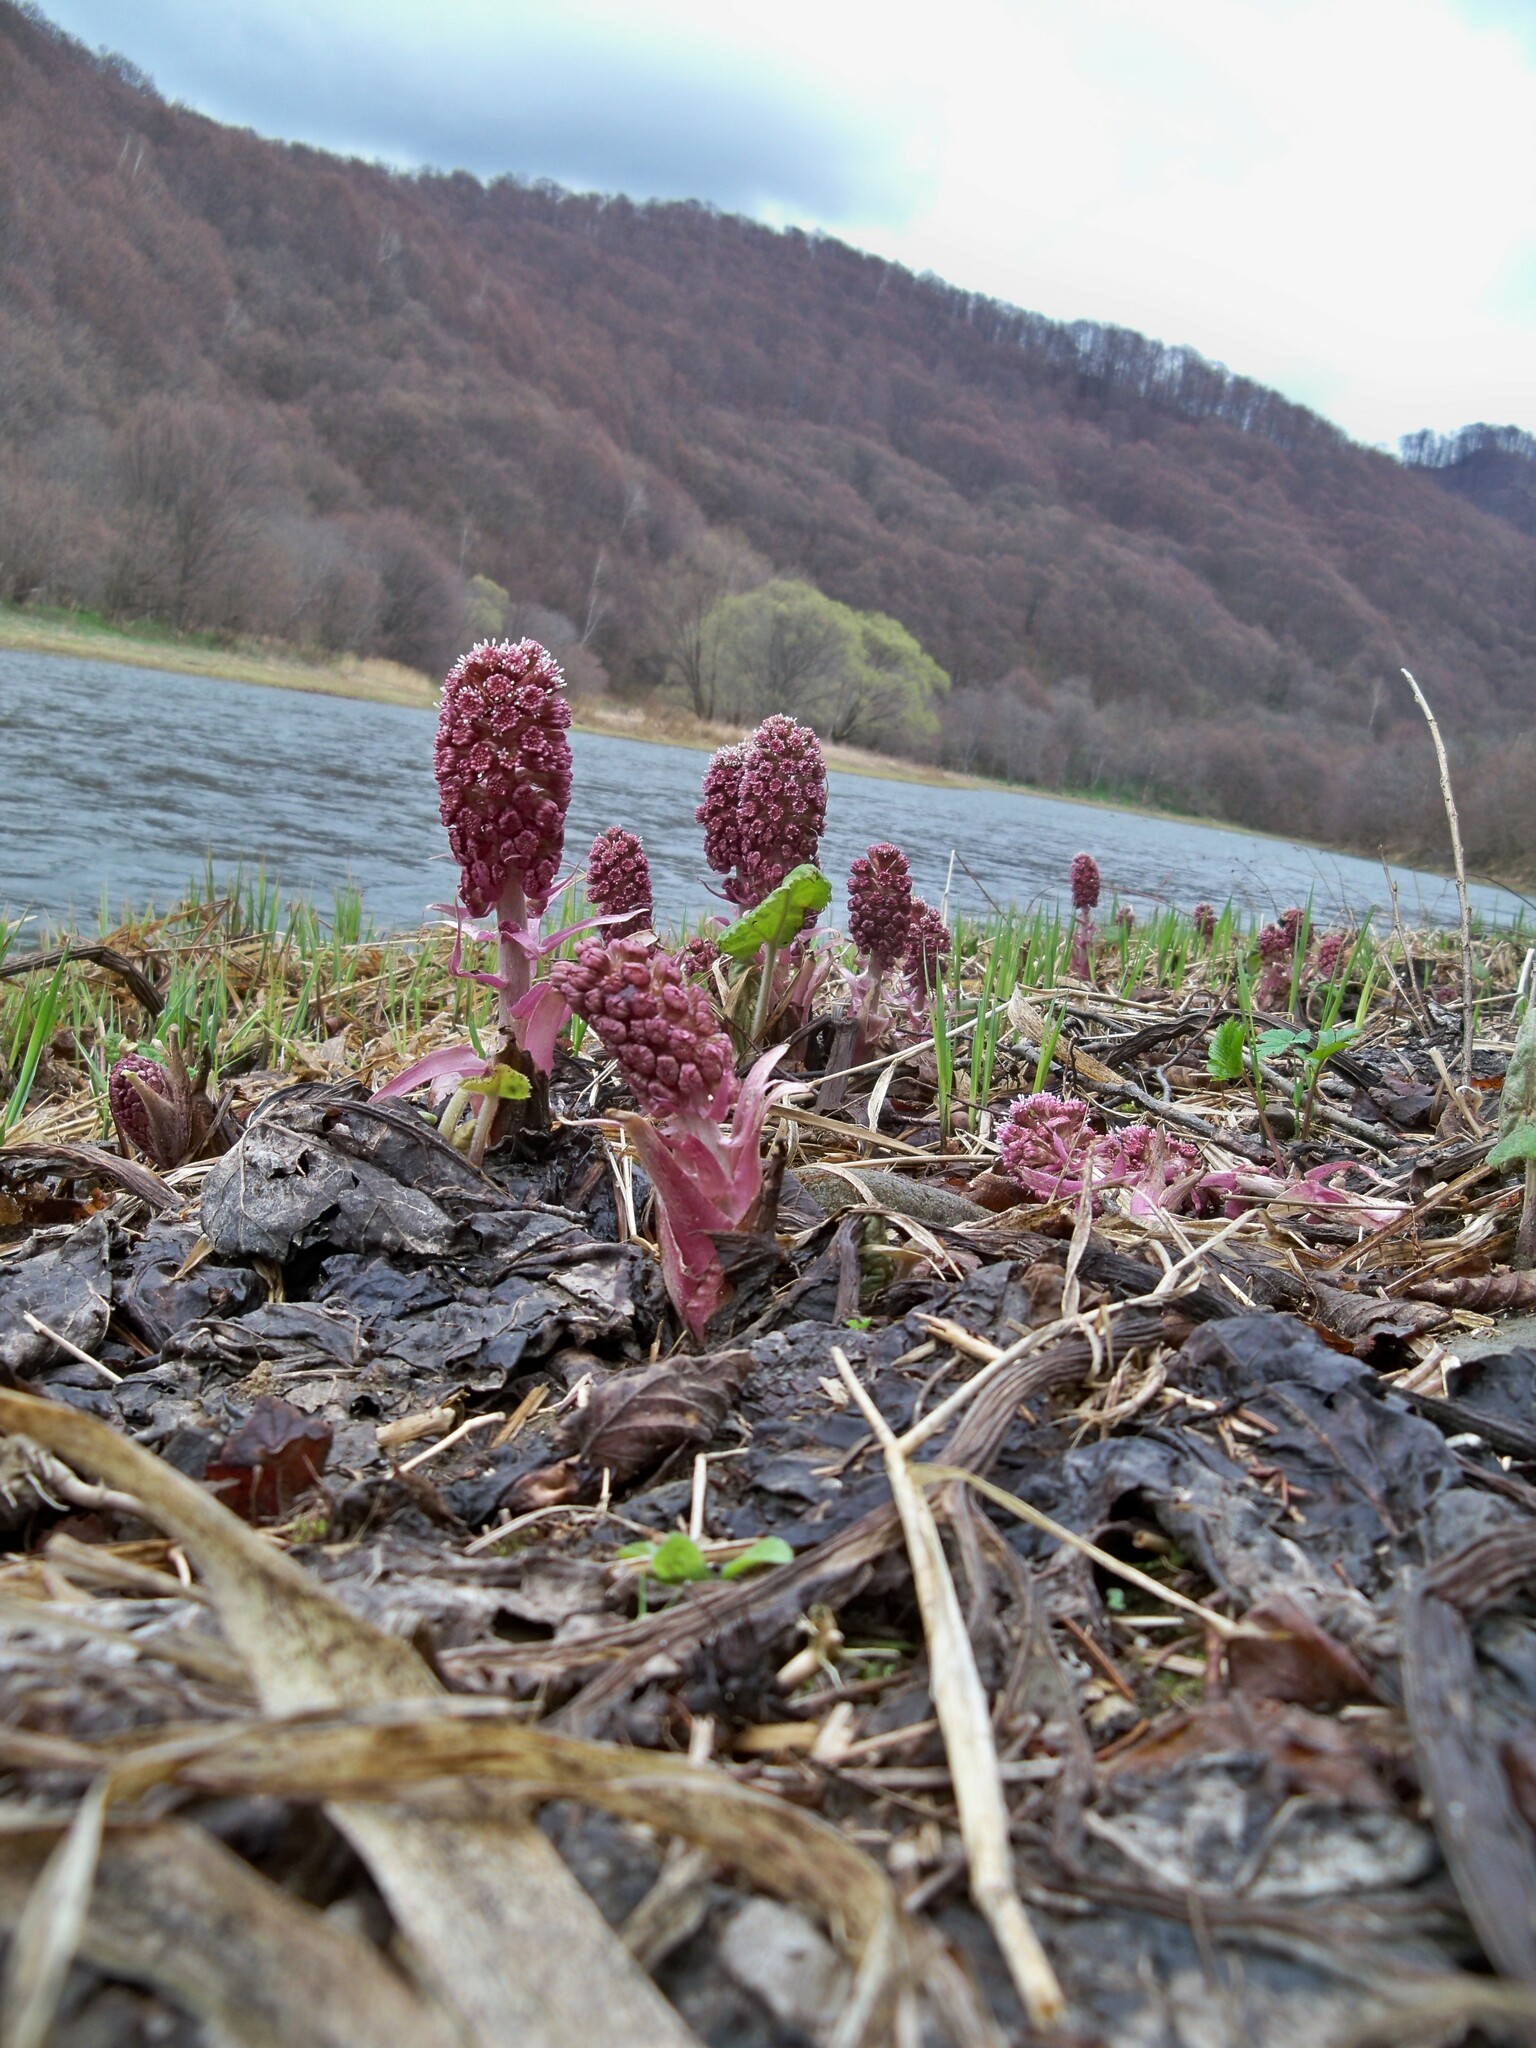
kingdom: Plantae
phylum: Tracheophyta
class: Magnoliopsida
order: Asterales
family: Asteraceae
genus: Petasites
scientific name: Petasites hybridus
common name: Butterbur
